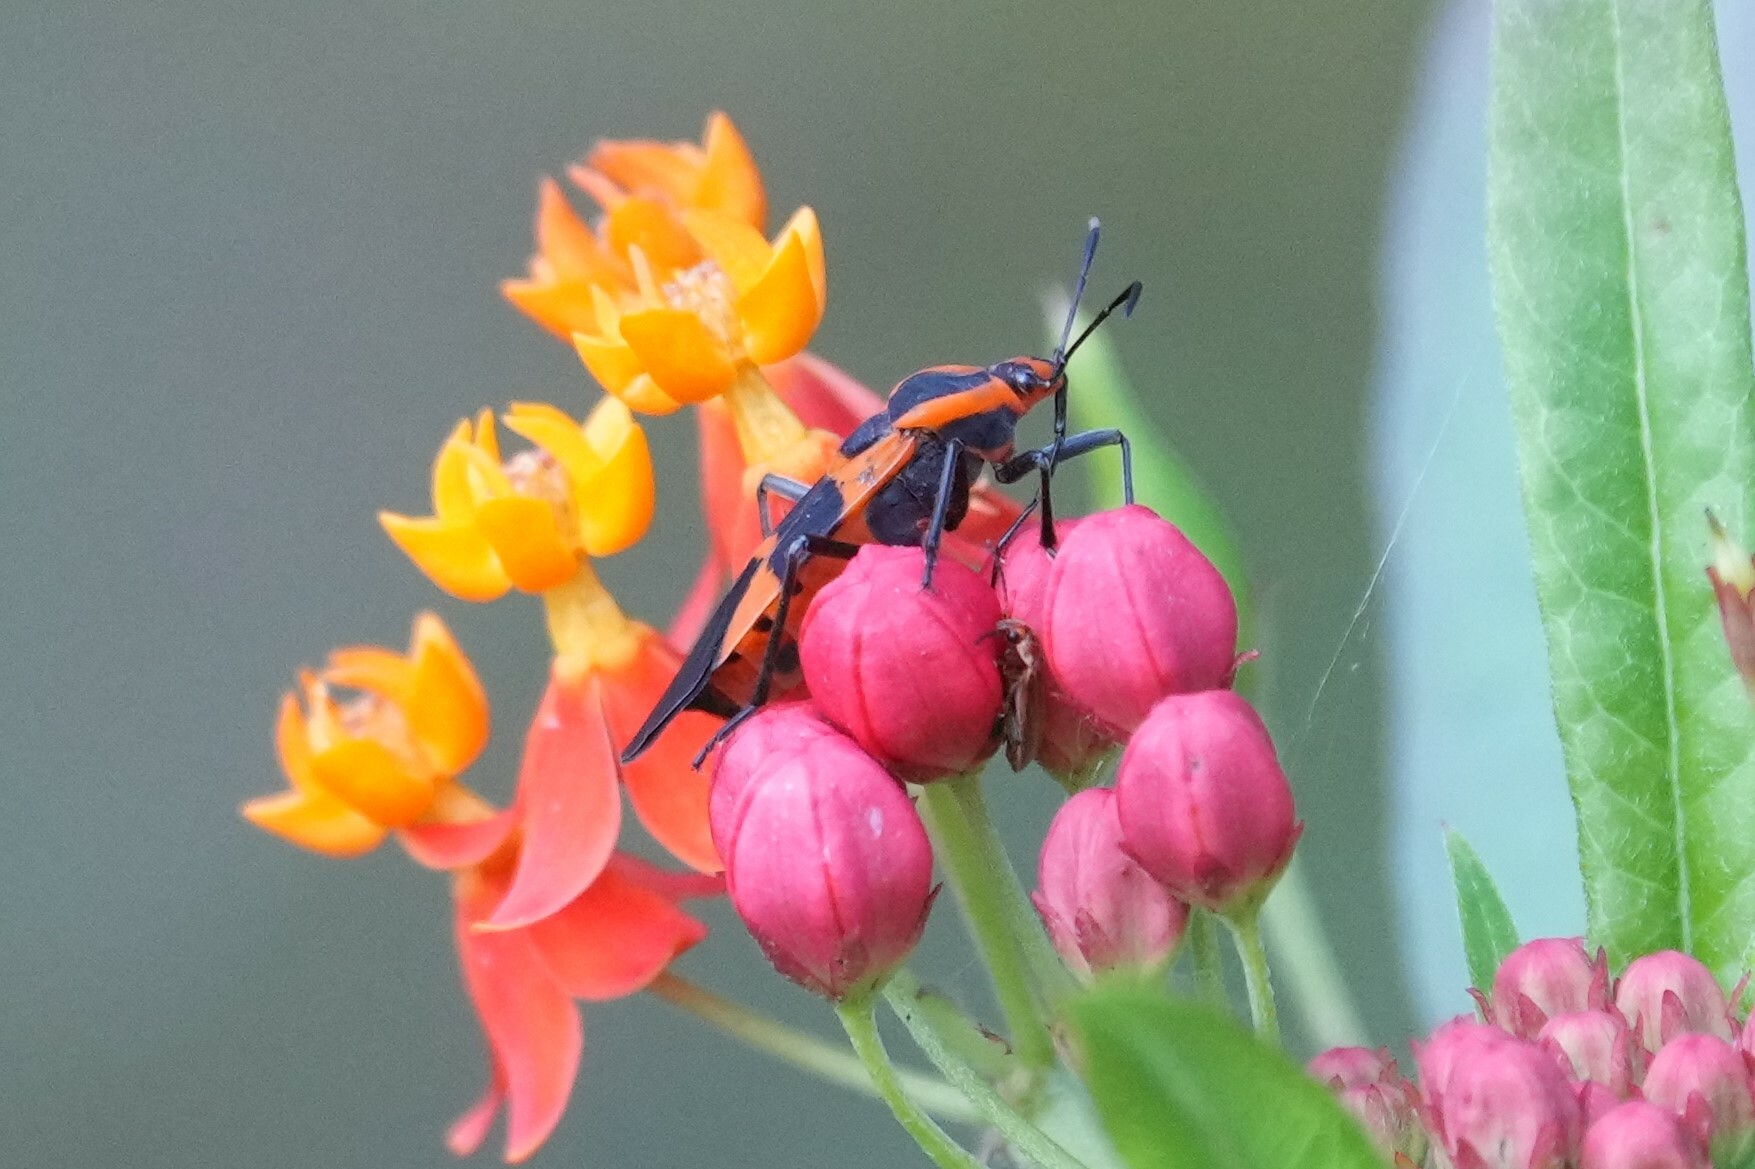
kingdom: Plantae
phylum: Tracheophyta
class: Magnoliopsida
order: Gentianales
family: Apocynaceae
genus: Asclepias
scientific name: Asclepias curassavica
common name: Bloodflower
